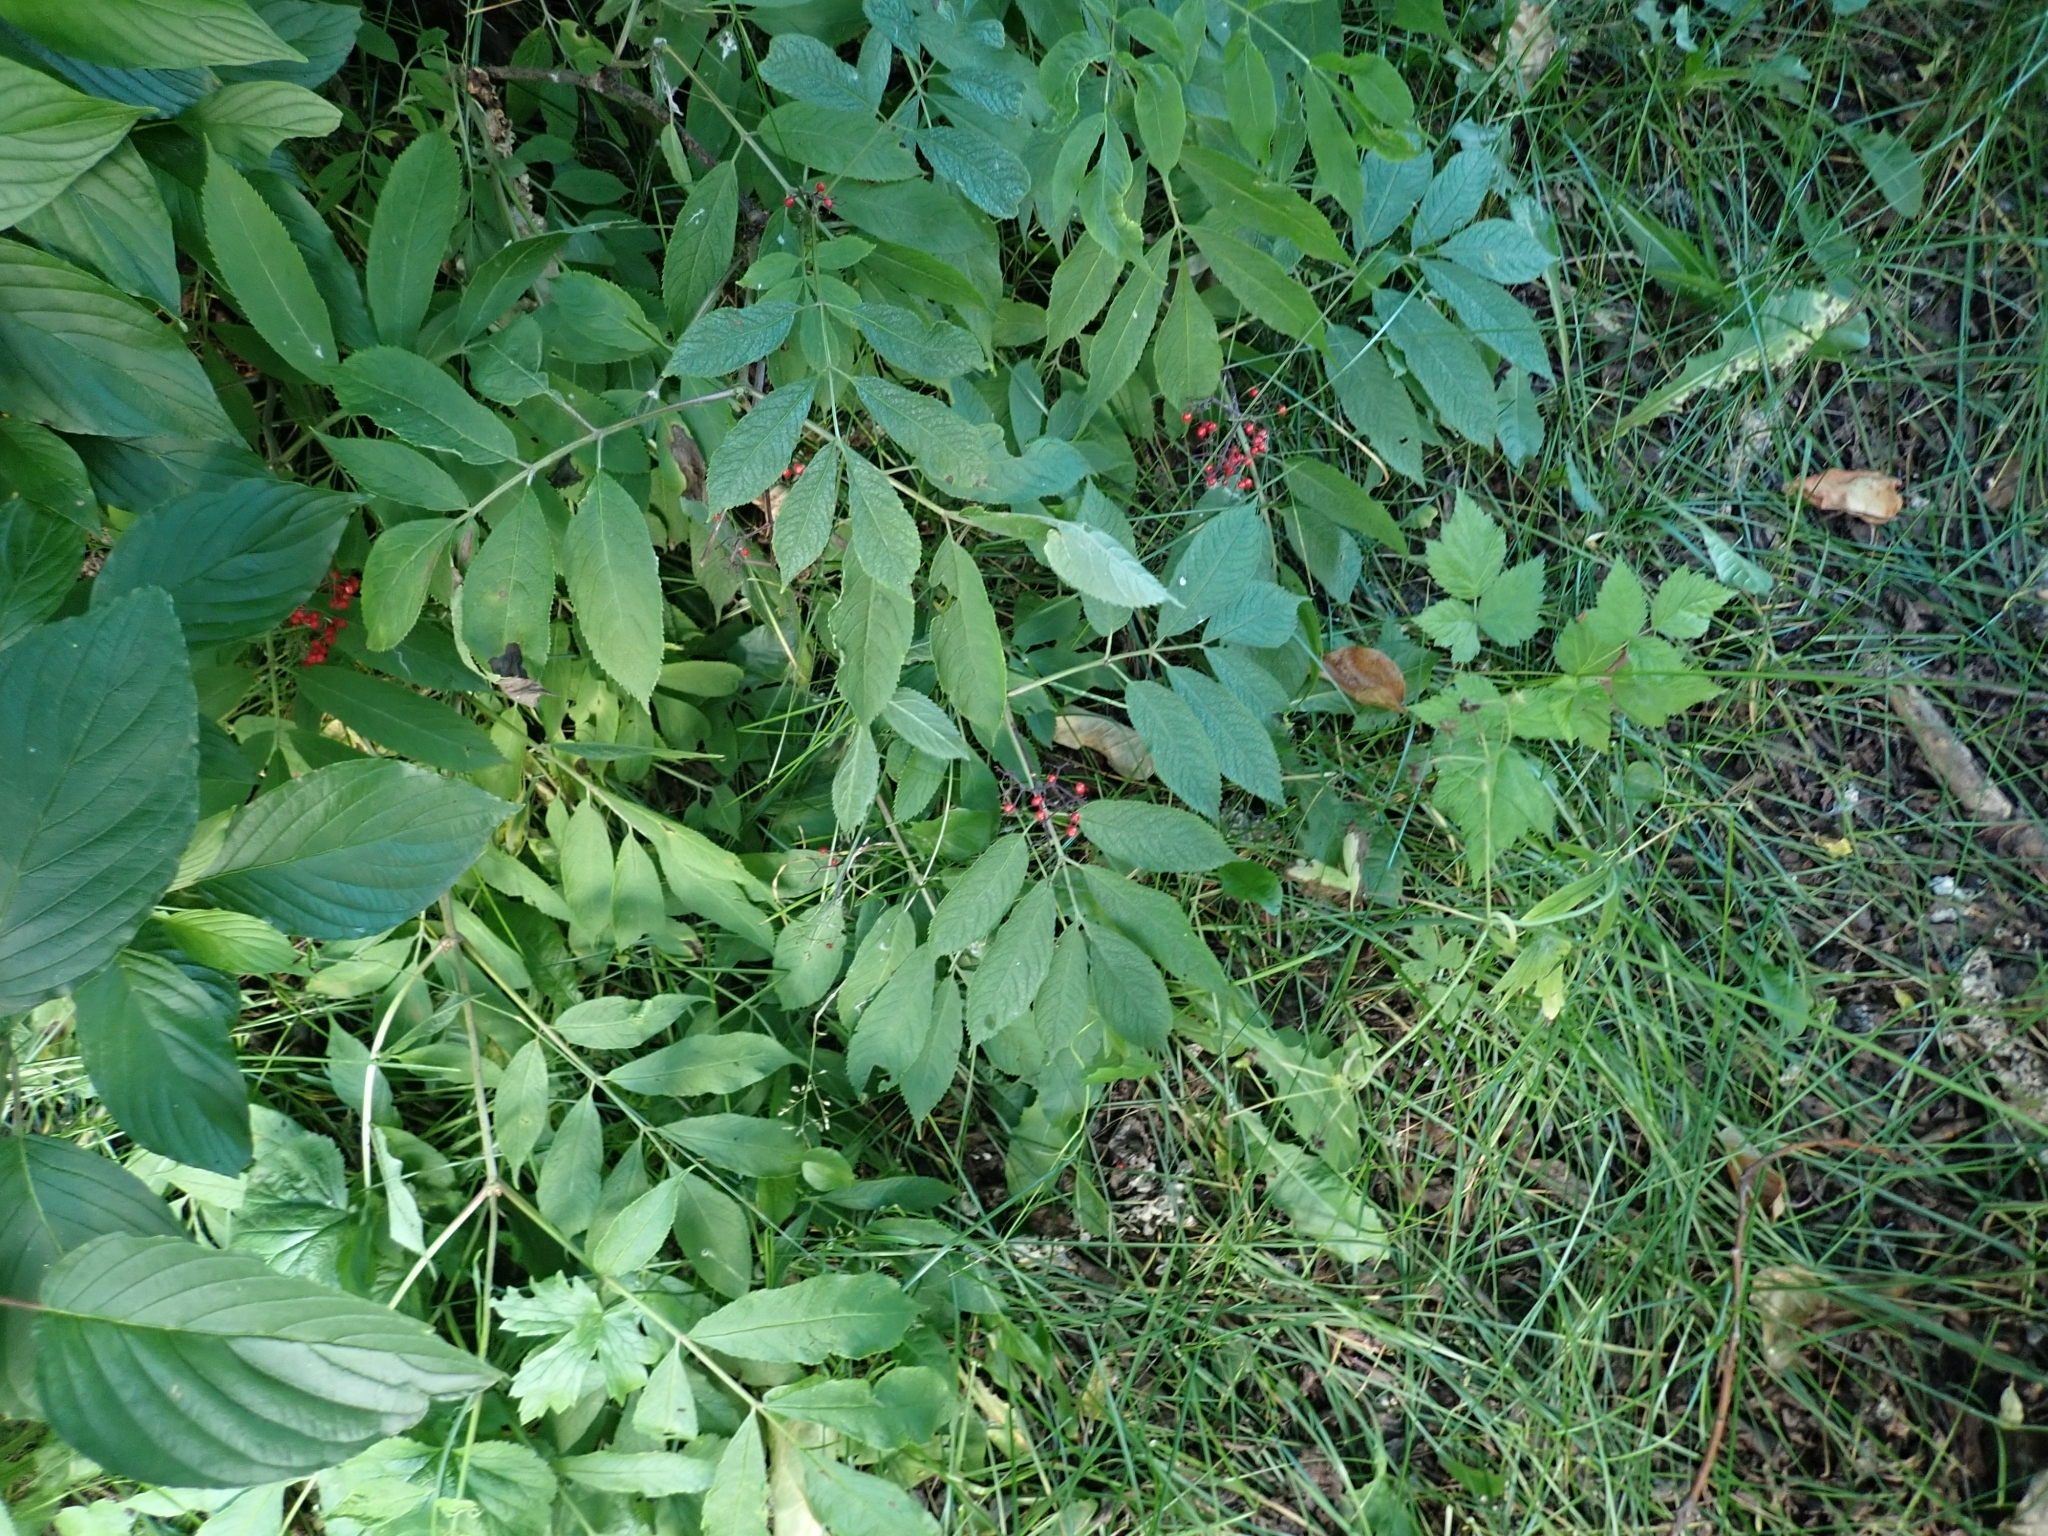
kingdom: Plantae
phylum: Tracheophyta
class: Magnoliopsida
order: Dipsacales
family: Viburnaceae
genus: Sambucus
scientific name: Sambucus racemosa
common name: Red-berried elder
